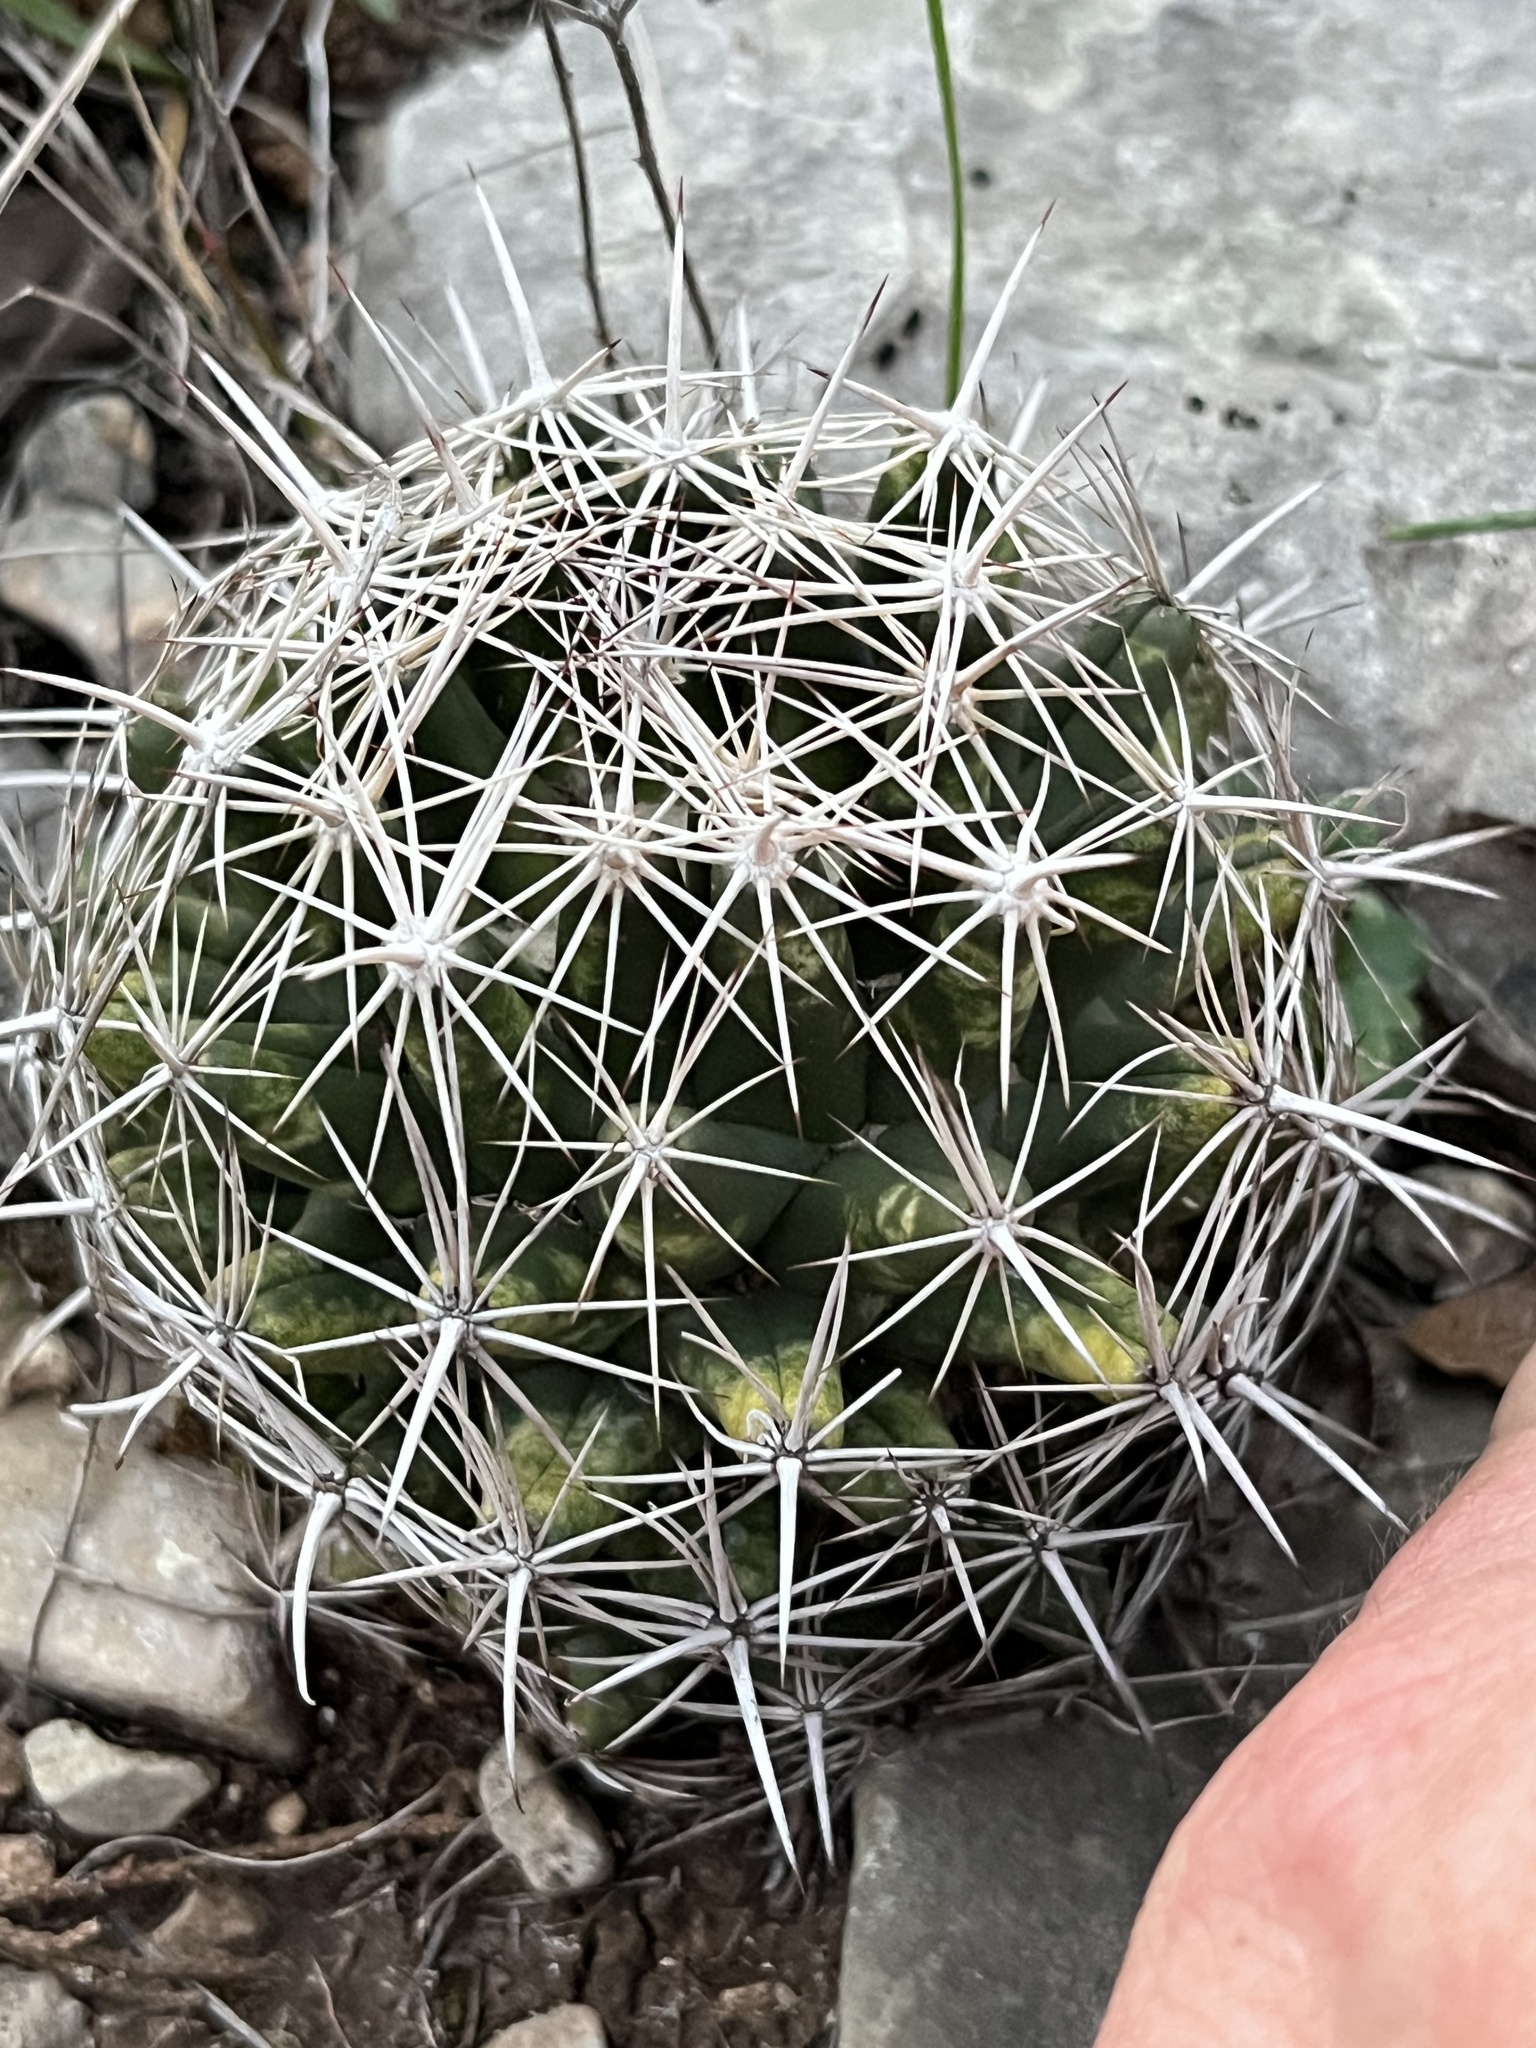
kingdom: Plantae
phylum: Tracheophyta
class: Magnoliopsida
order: Caryophyllales
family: Cactaceae
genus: Coryphantha
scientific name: Coryphantha sulcata
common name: Finger cactus
